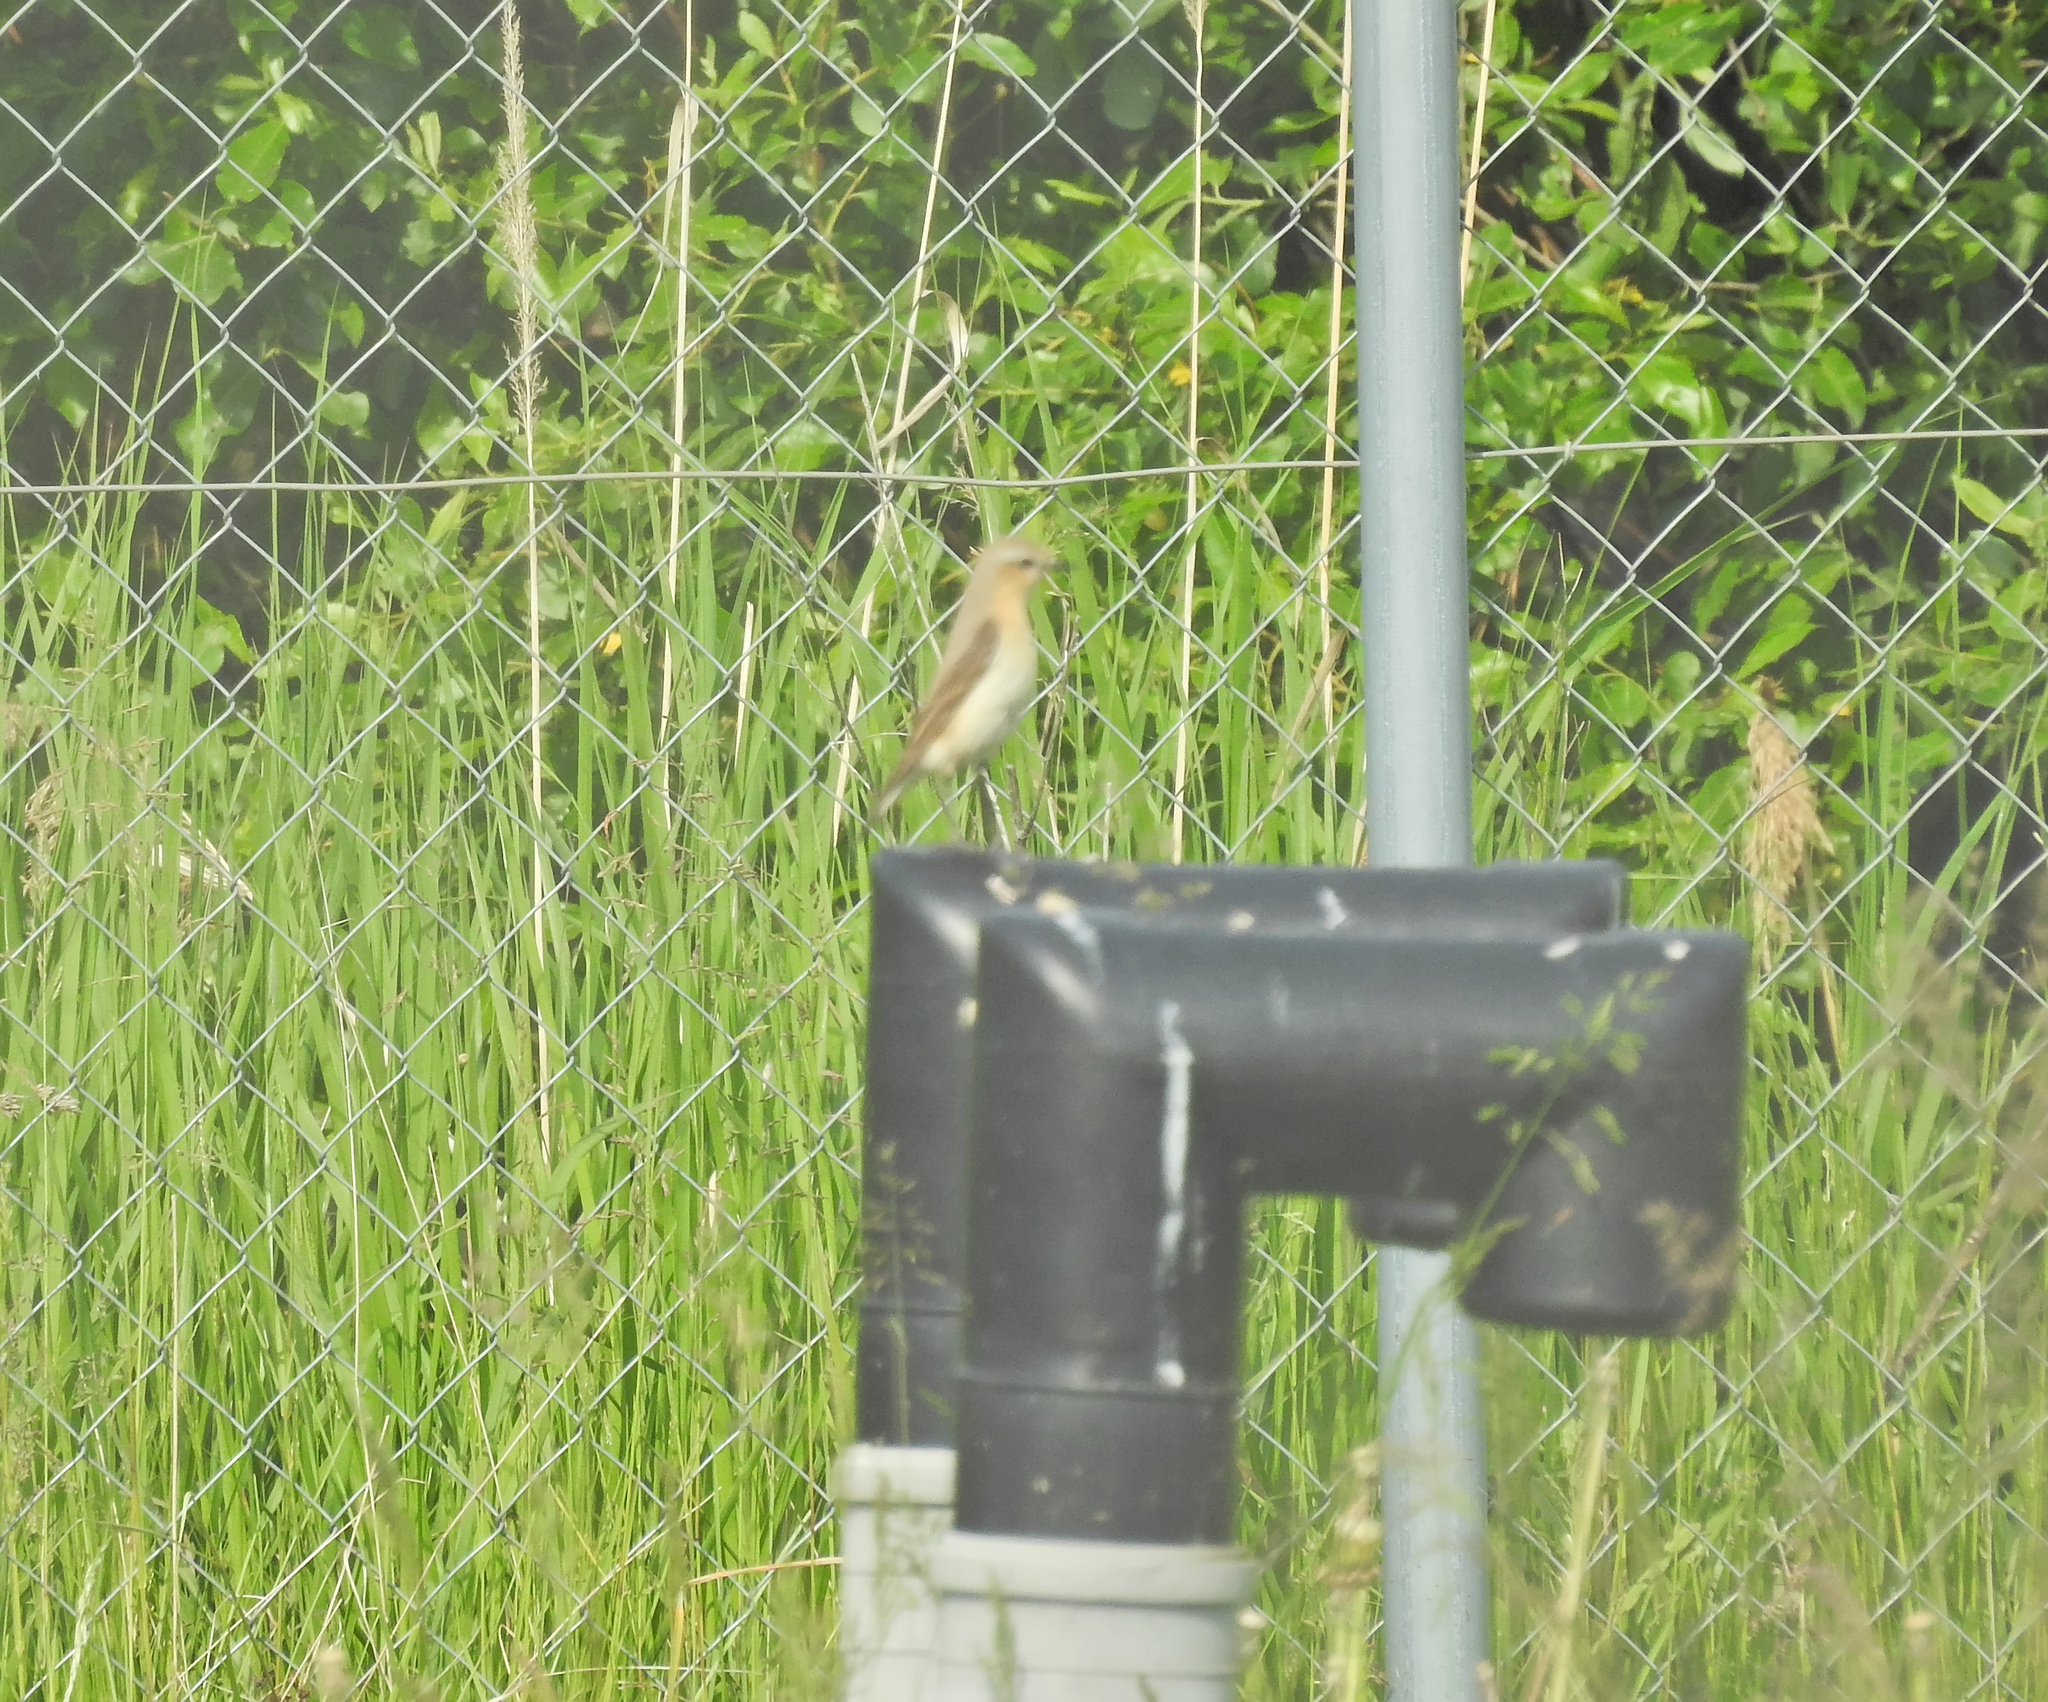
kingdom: Animalia
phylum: Chordata
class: Aves
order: Passeriformes
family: Muscicapidae
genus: Oenanthe
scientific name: Oenanthe oenanthe
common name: Northern wheatear
